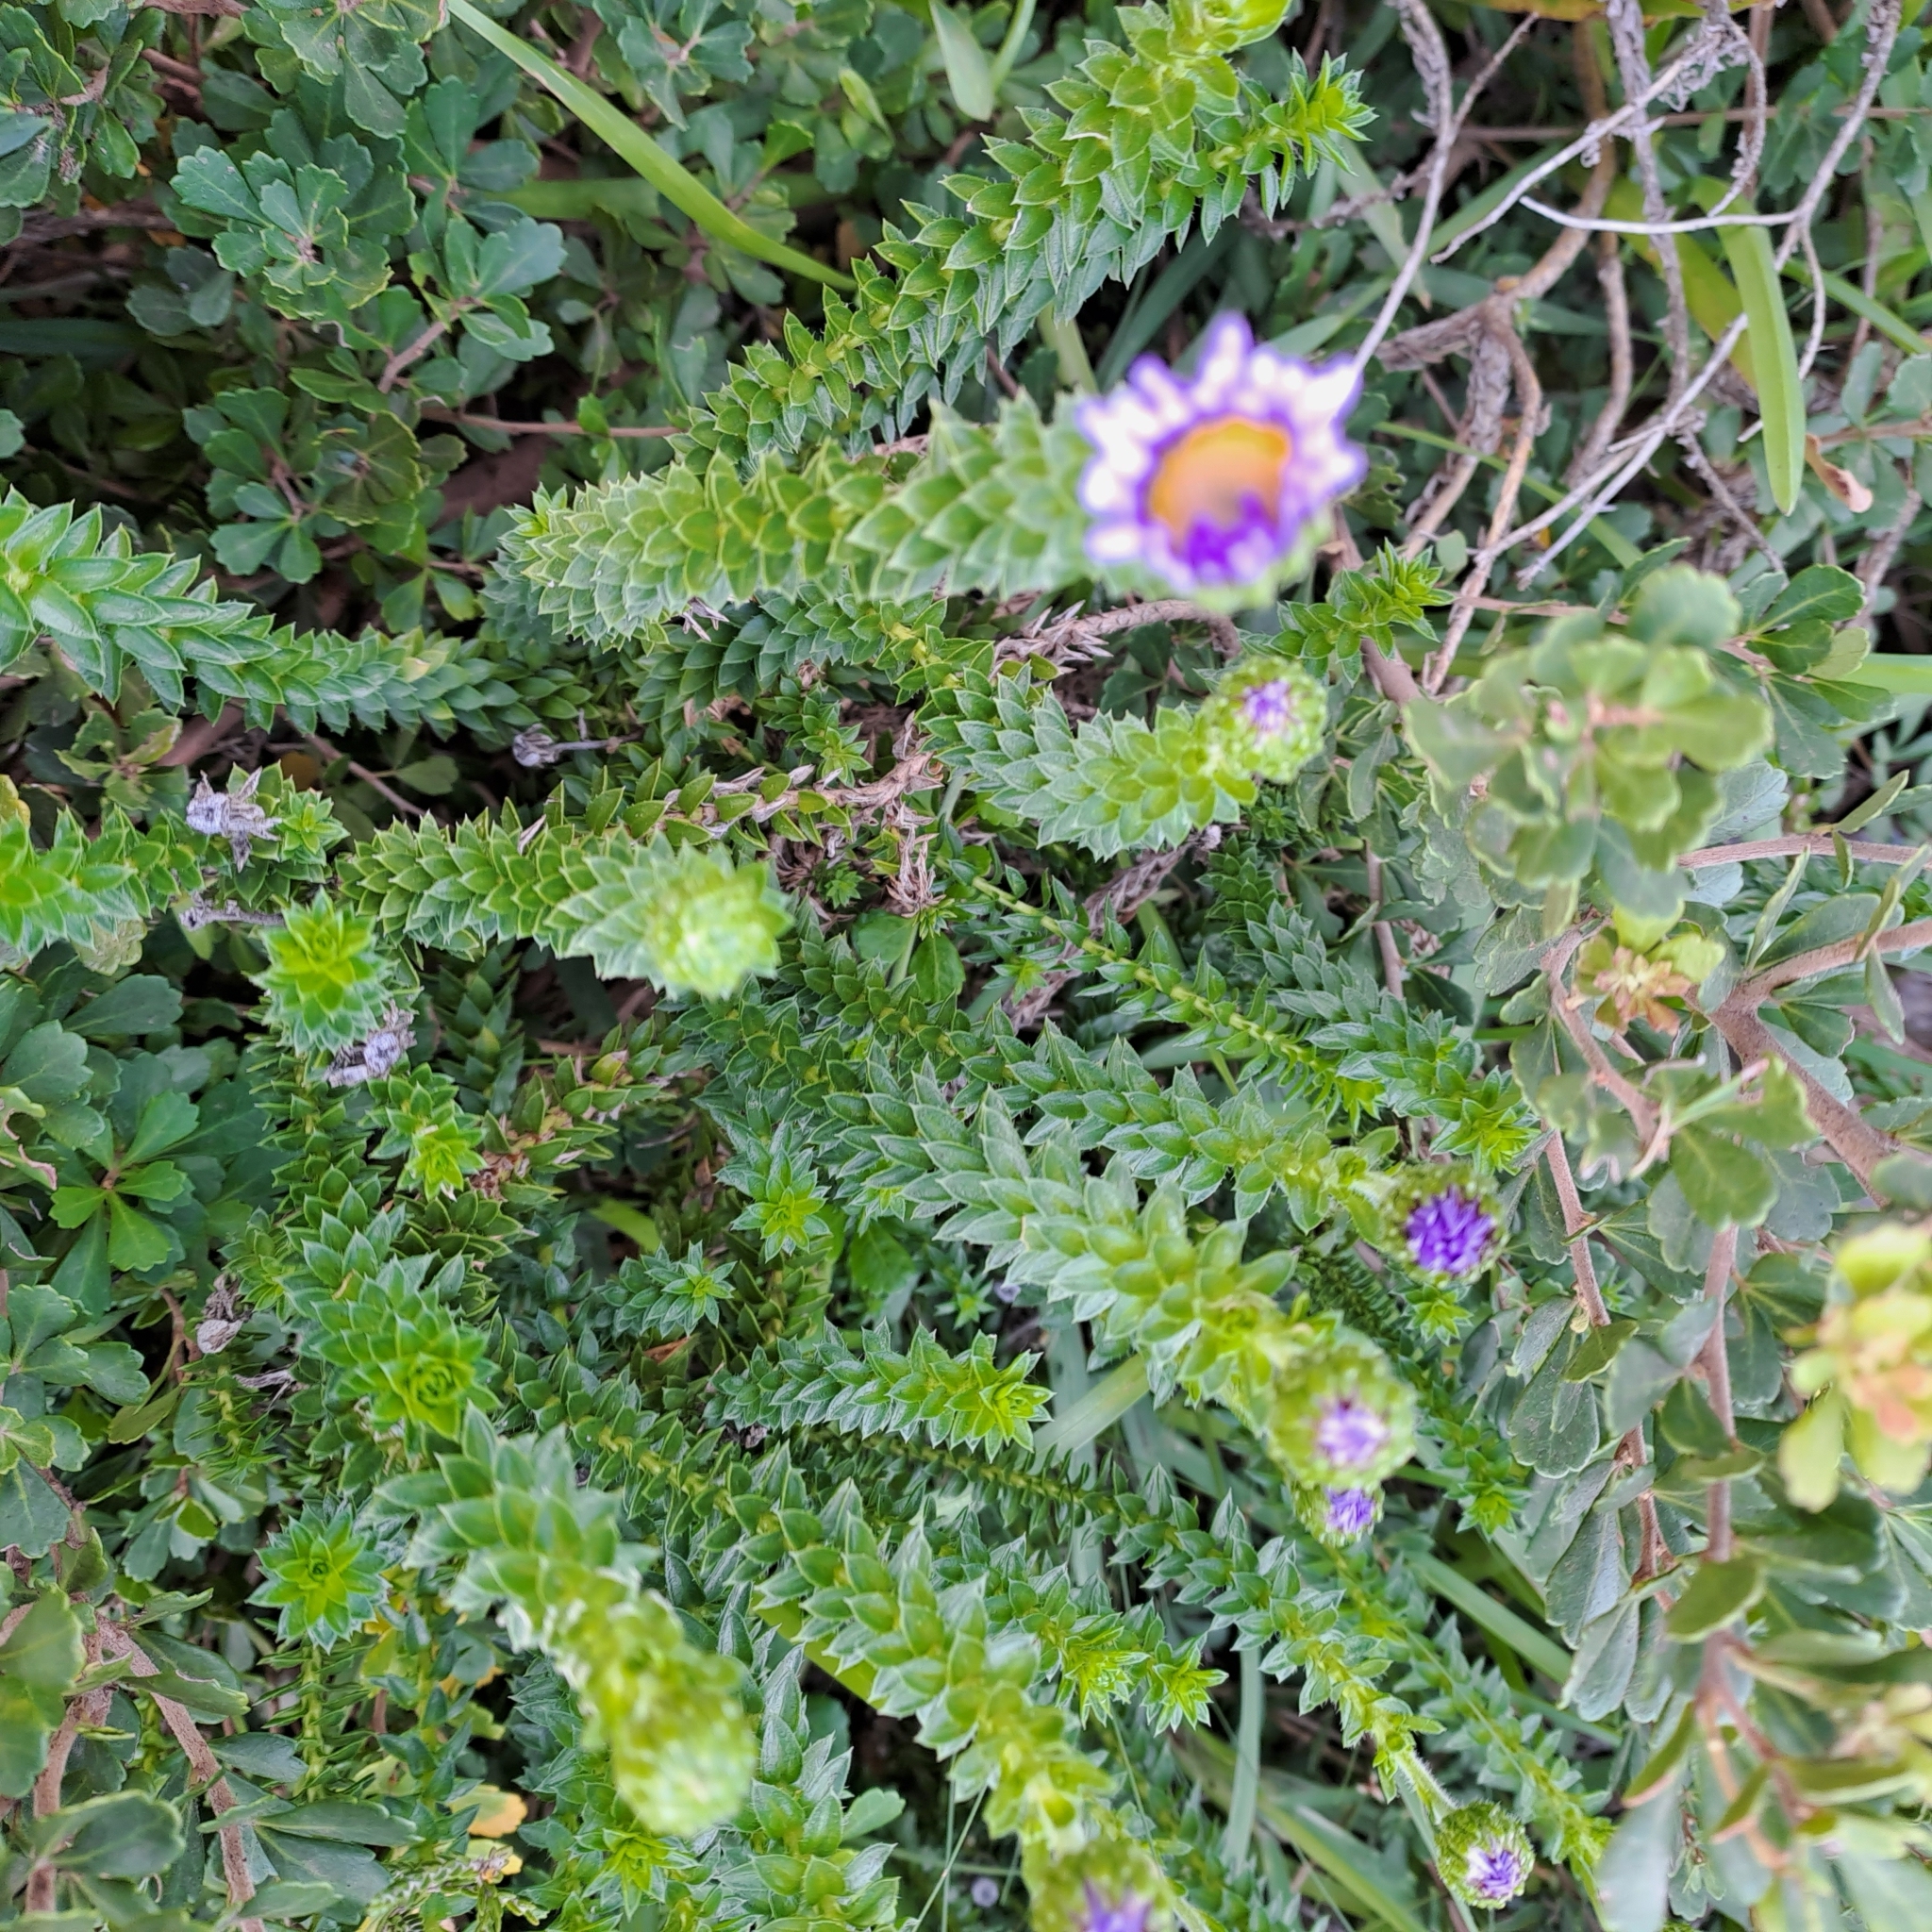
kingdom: Plantae
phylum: Tracheophyta
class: Magnoliopsida
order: Asterales
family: Asteraceae
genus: Felicia
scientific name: Felicia echinata
